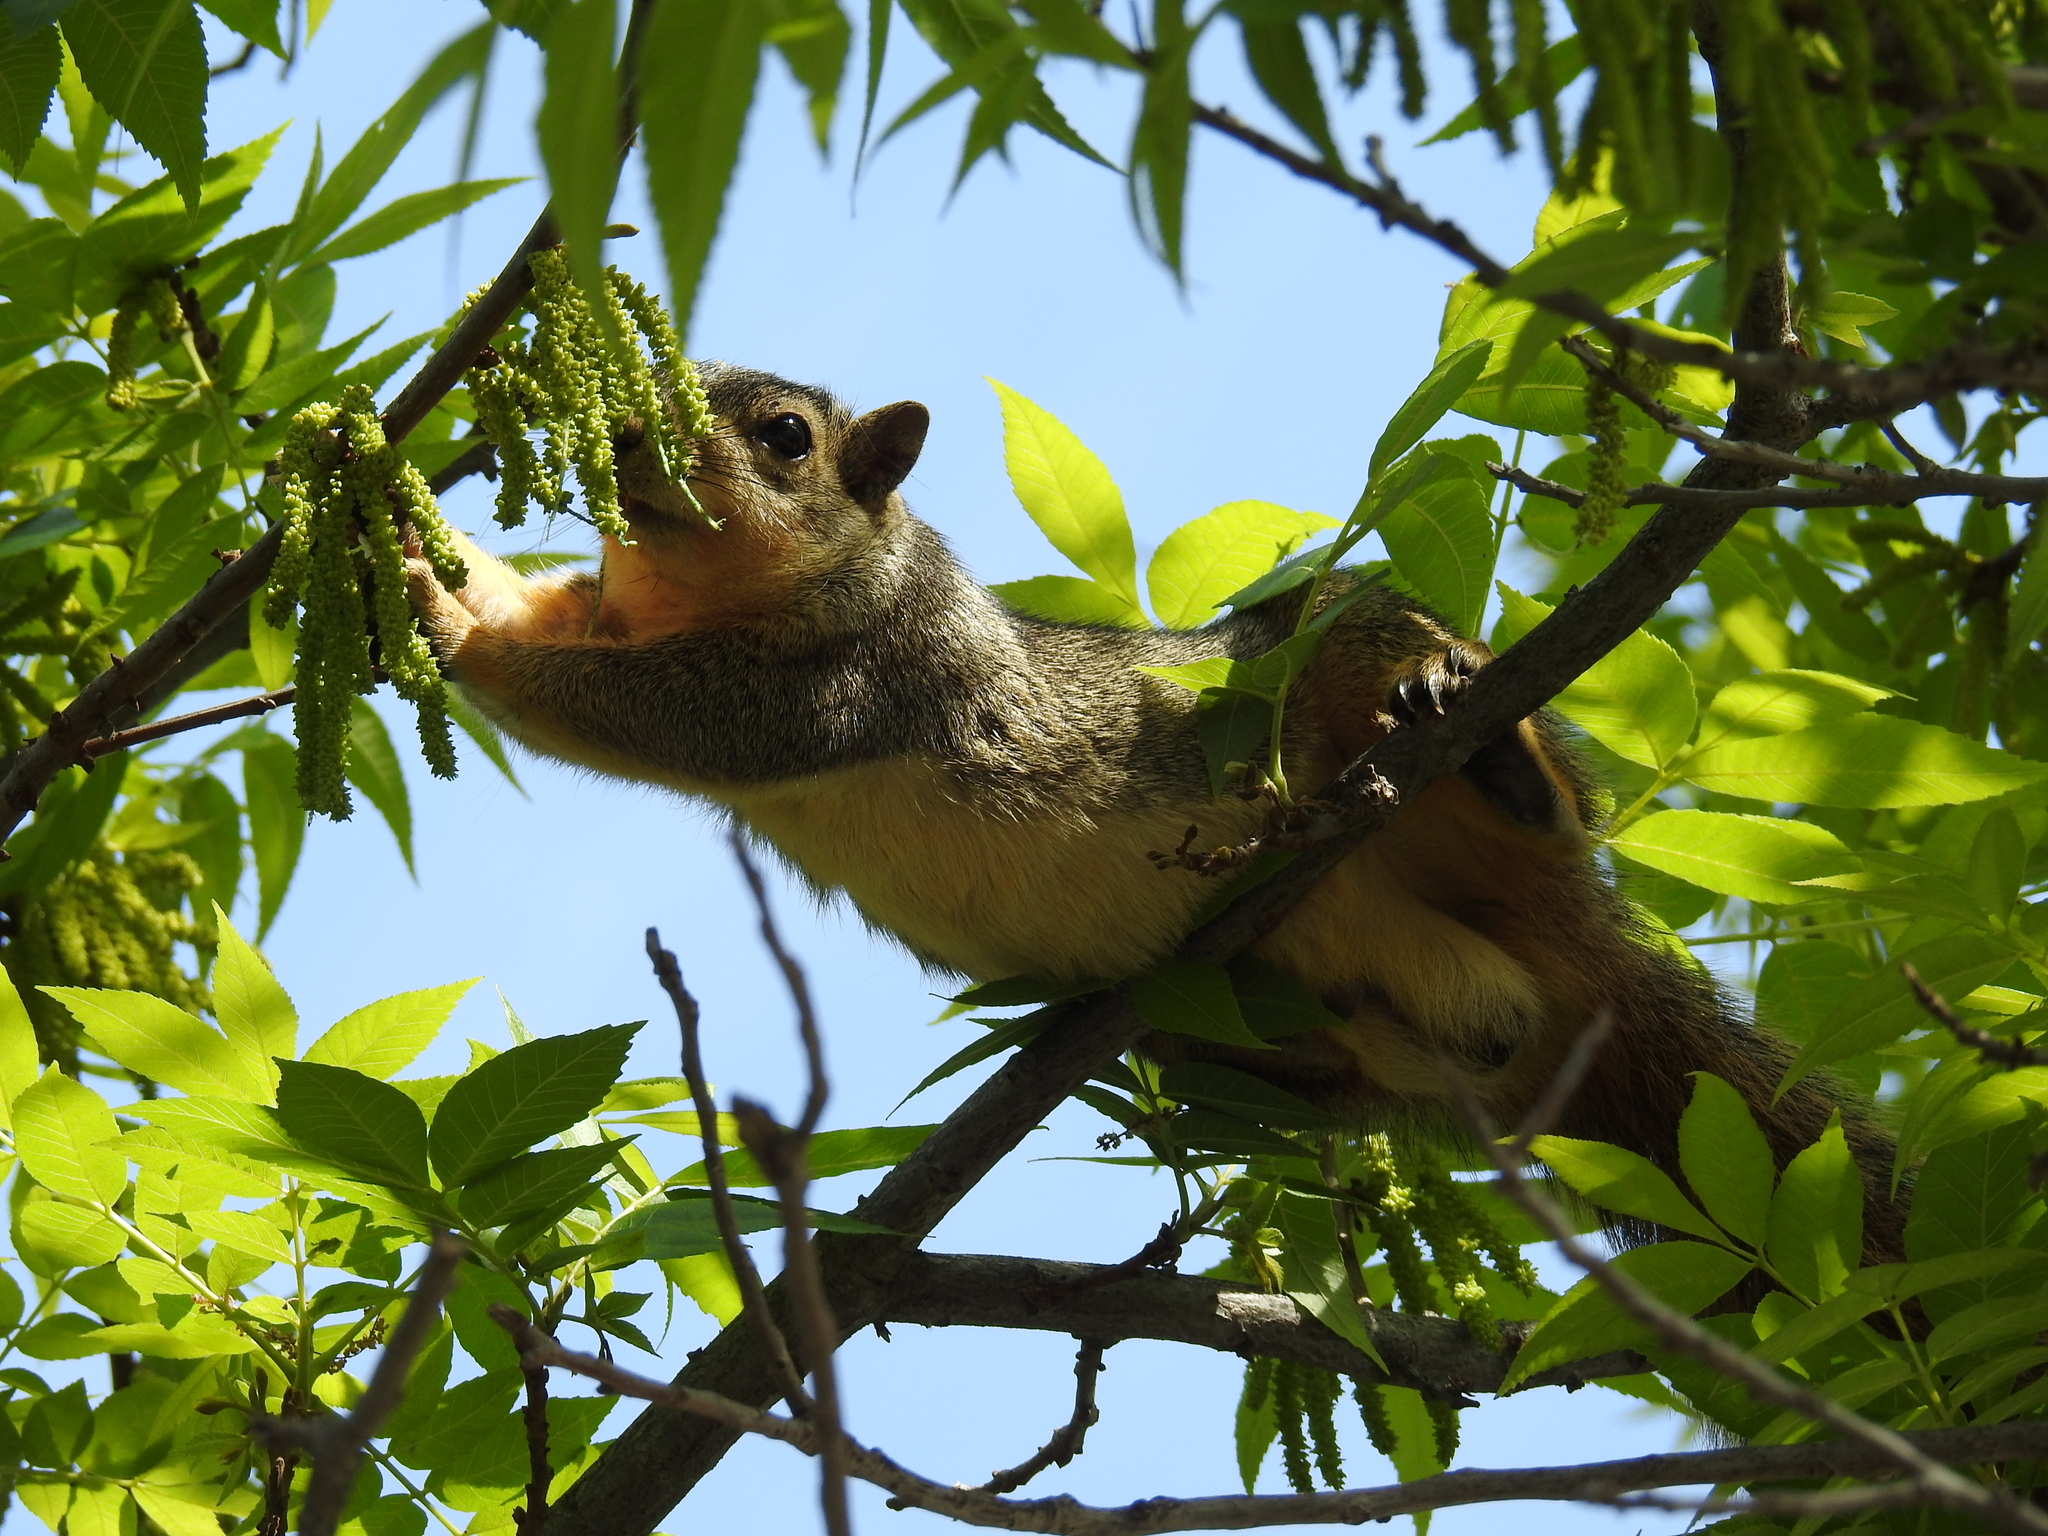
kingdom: Animalia
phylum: Chordata
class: Mammalia
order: Rodentia
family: Sciuridae
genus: Sciurus
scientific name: Sciurus niger
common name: Fox squirrel
